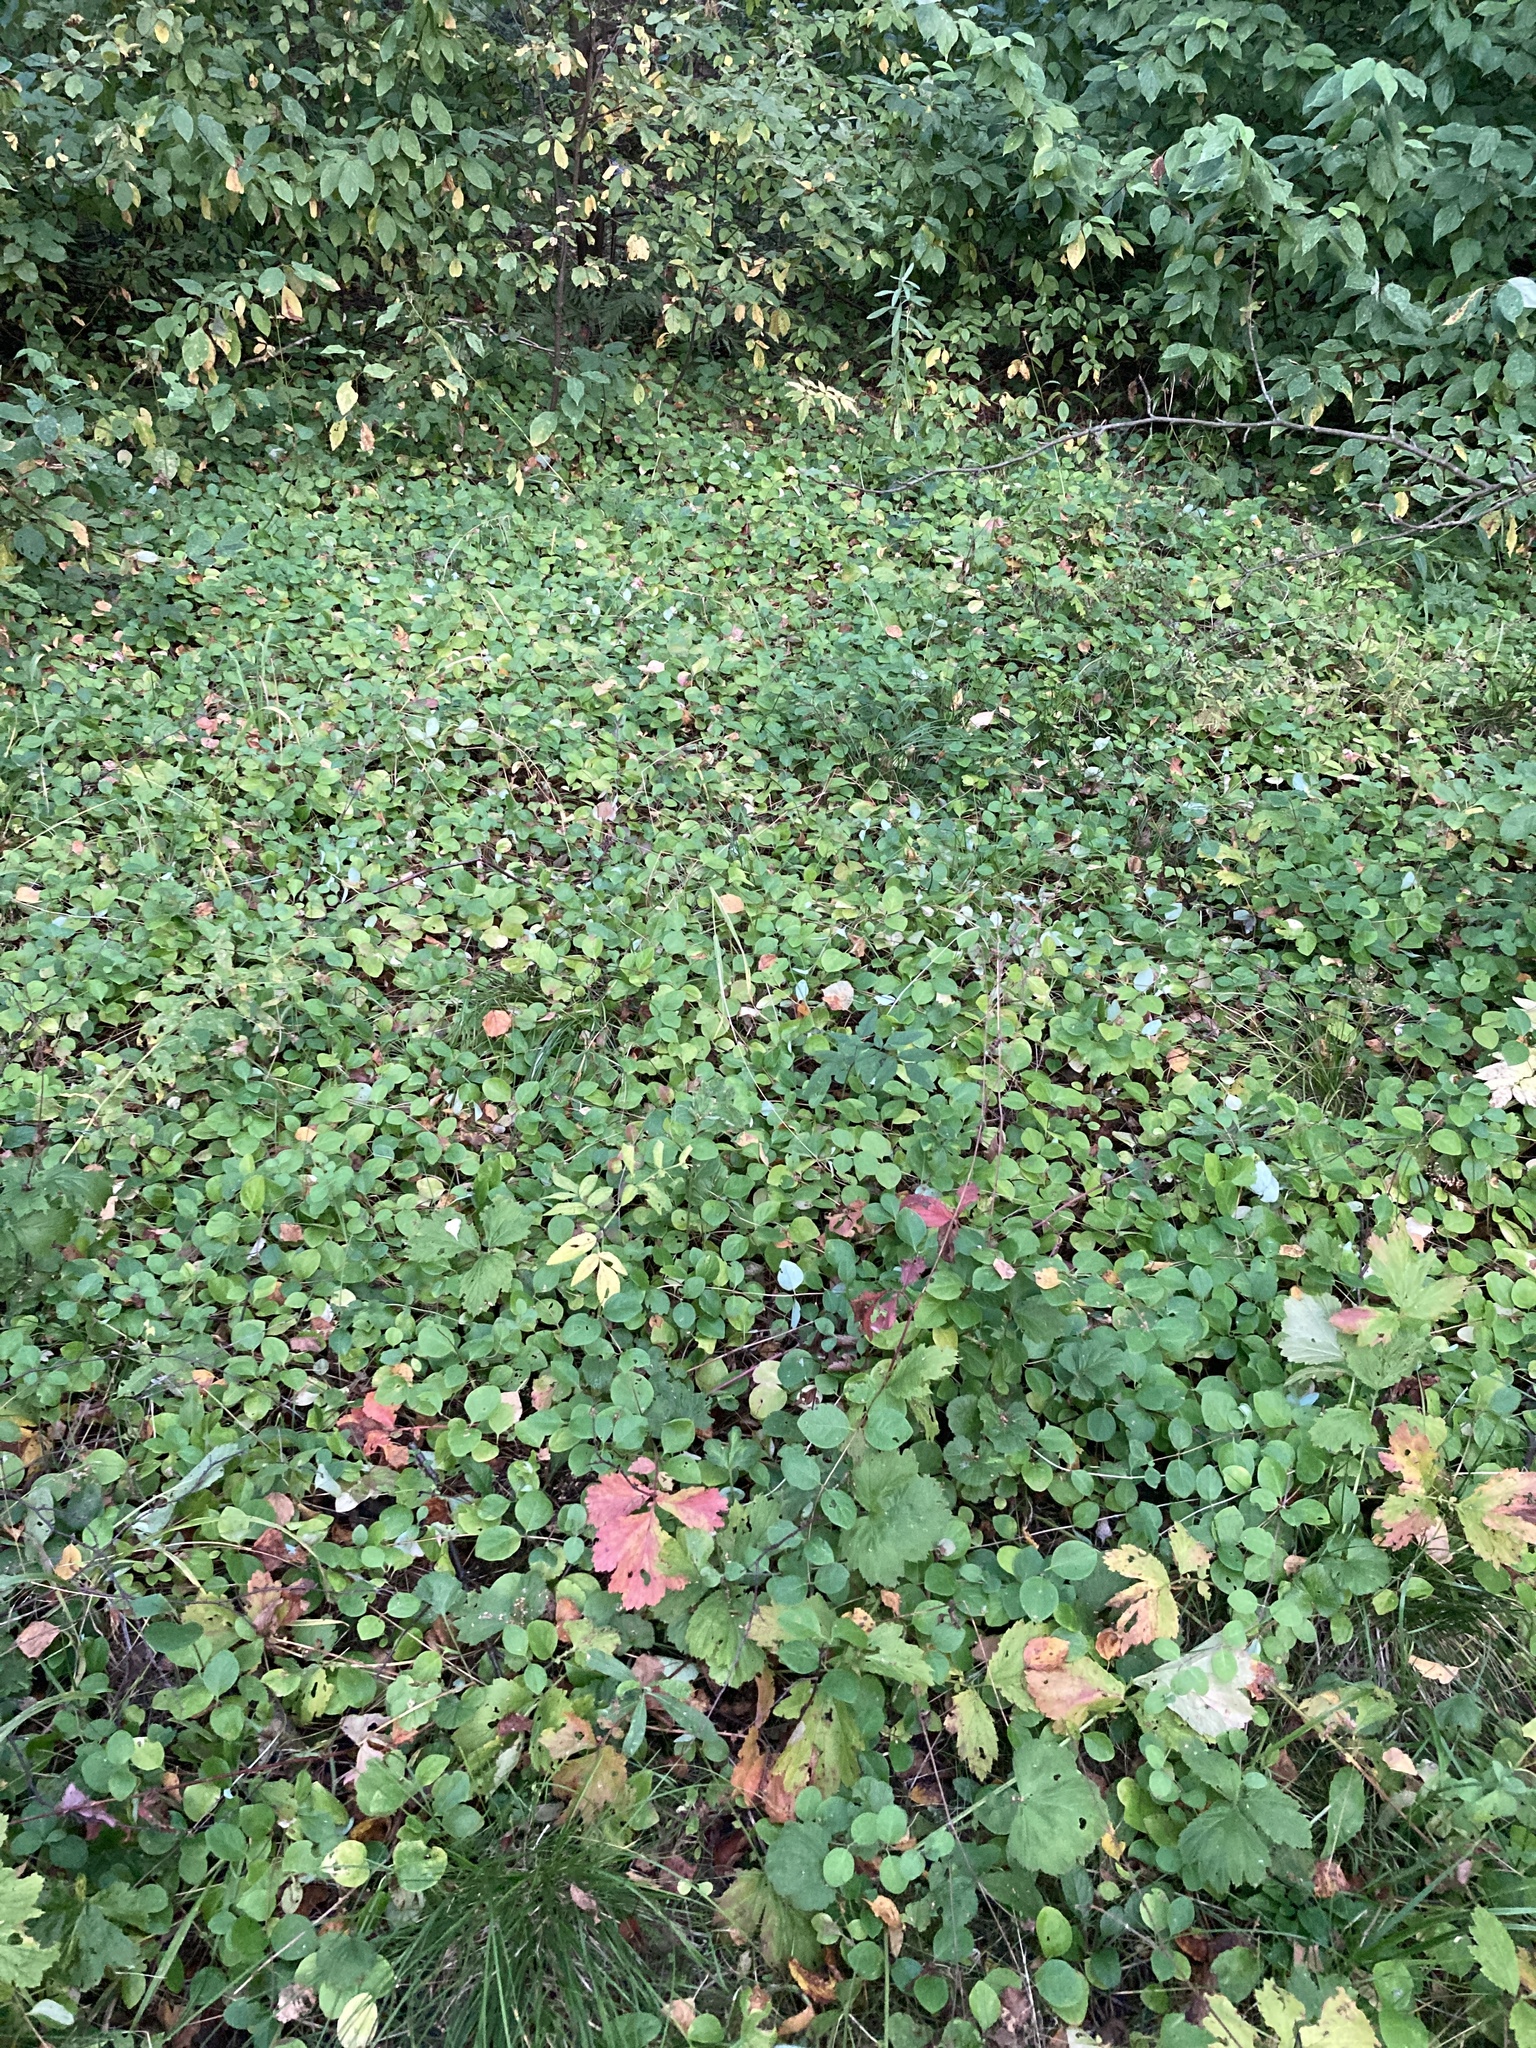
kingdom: Plantae
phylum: Tracheophyta
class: Magnoliopsida
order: Dipsacales
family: Caprifoliaceae
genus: Lonicera
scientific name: Lonicera caprifolium
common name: Perfoliate honeysuckle
